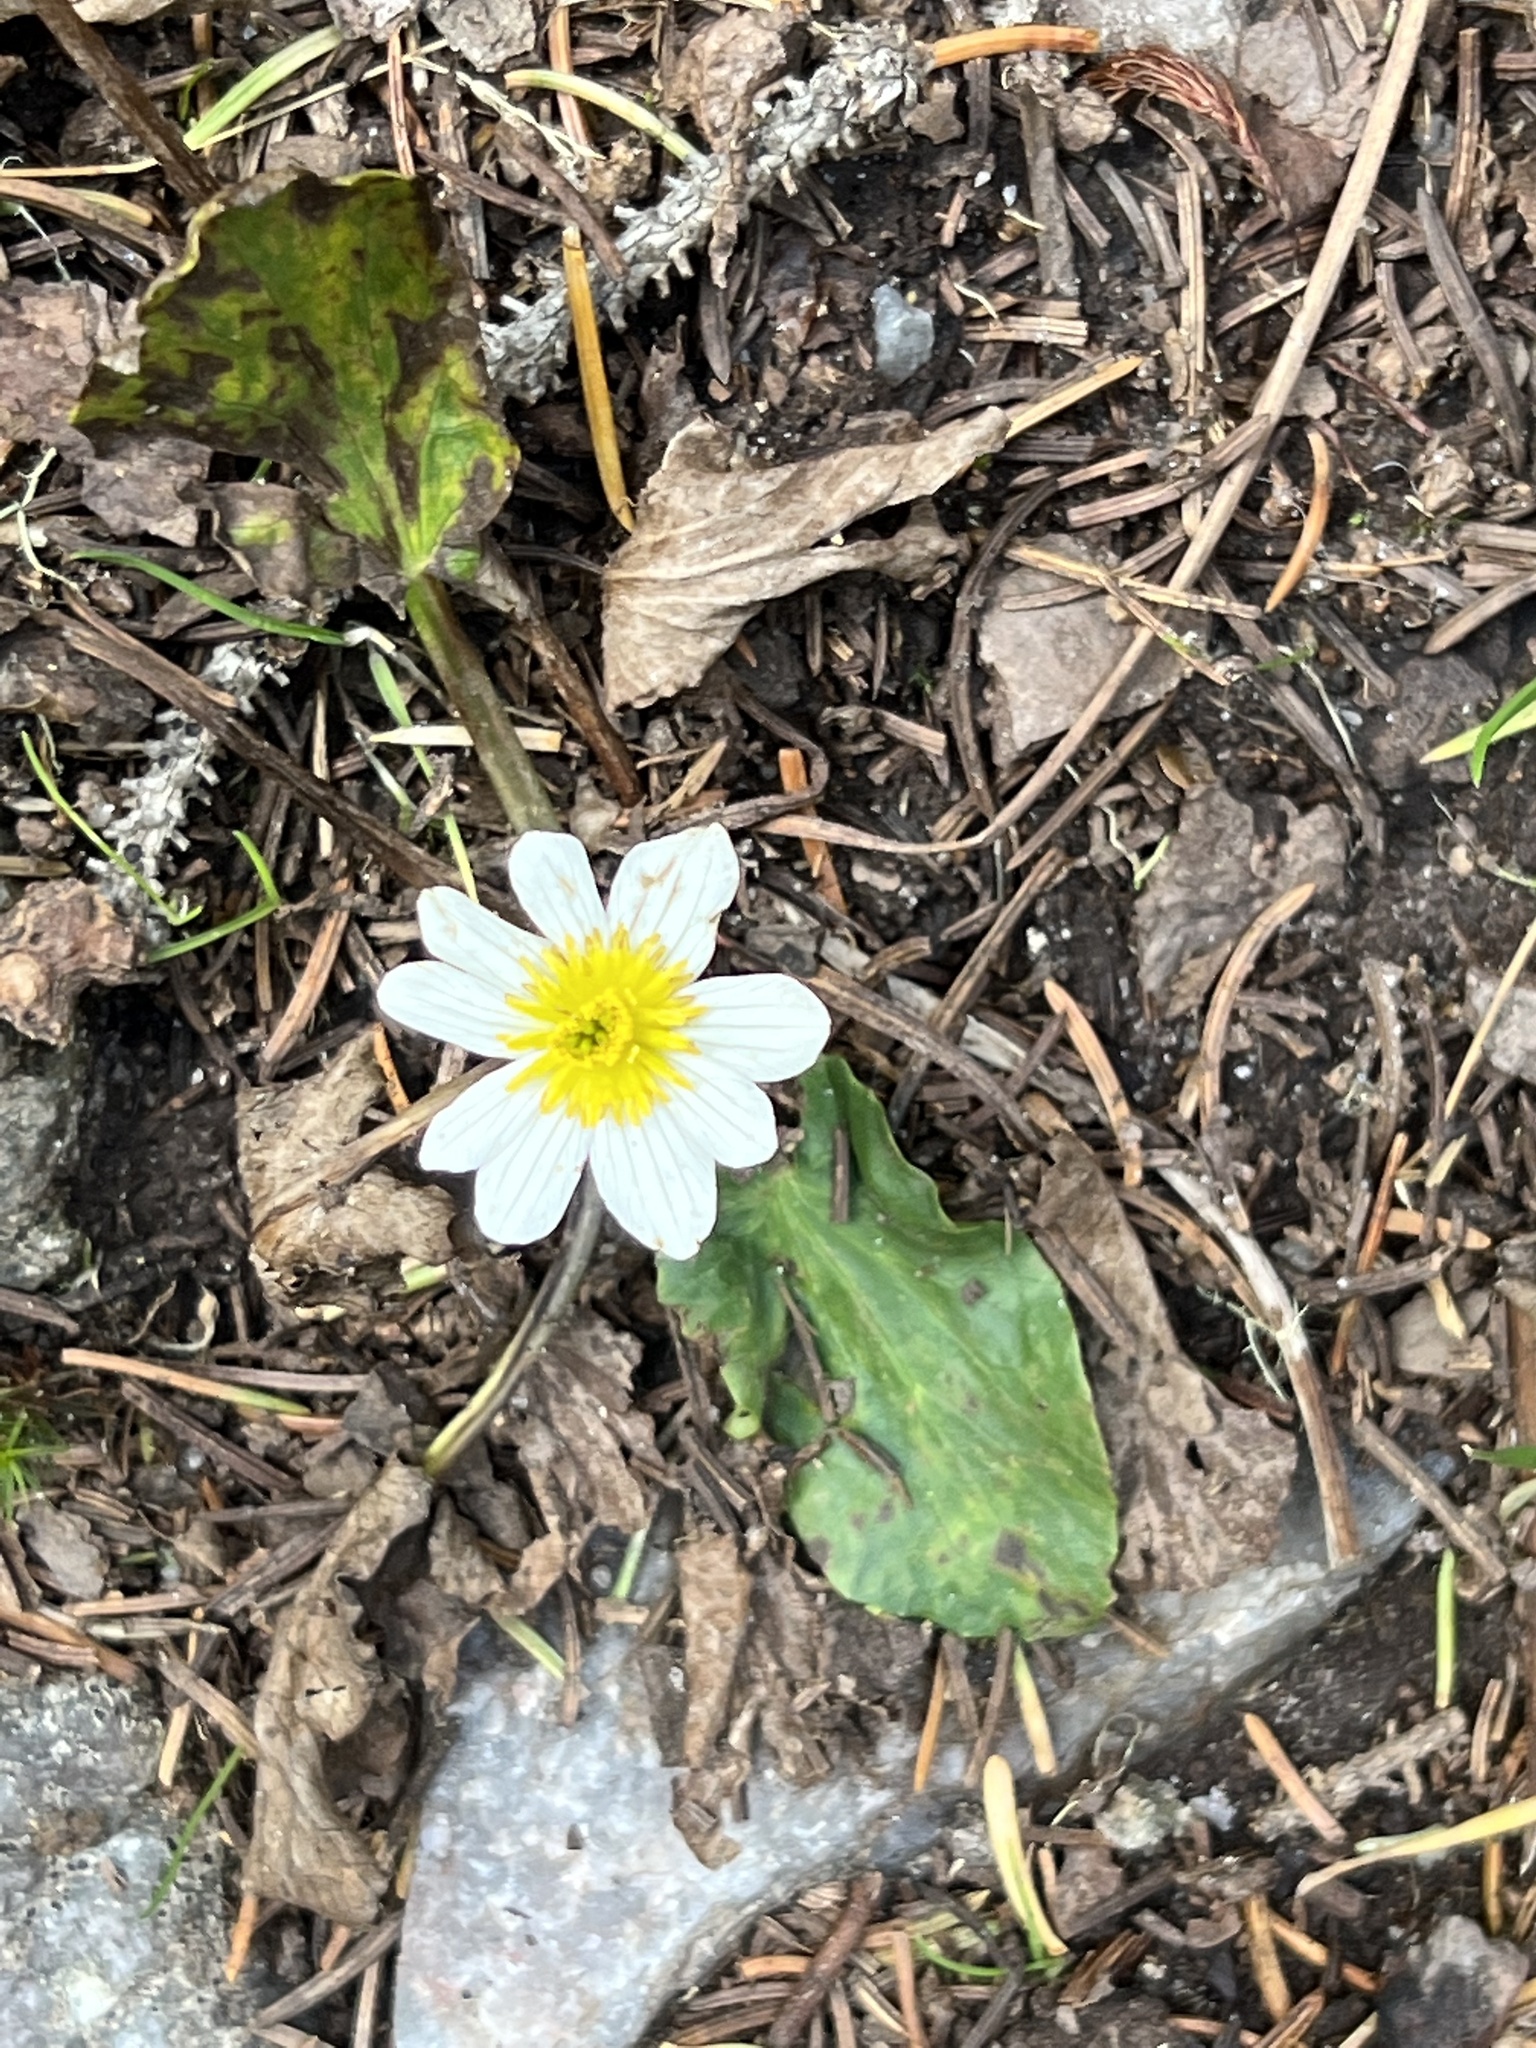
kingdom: Plantae
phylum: Tracheophyta
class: Magnoliopsida
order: Ranunculales
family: Ranunculaceae
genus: Caltha
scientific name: Caltha leptosepala
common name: Elkslip
